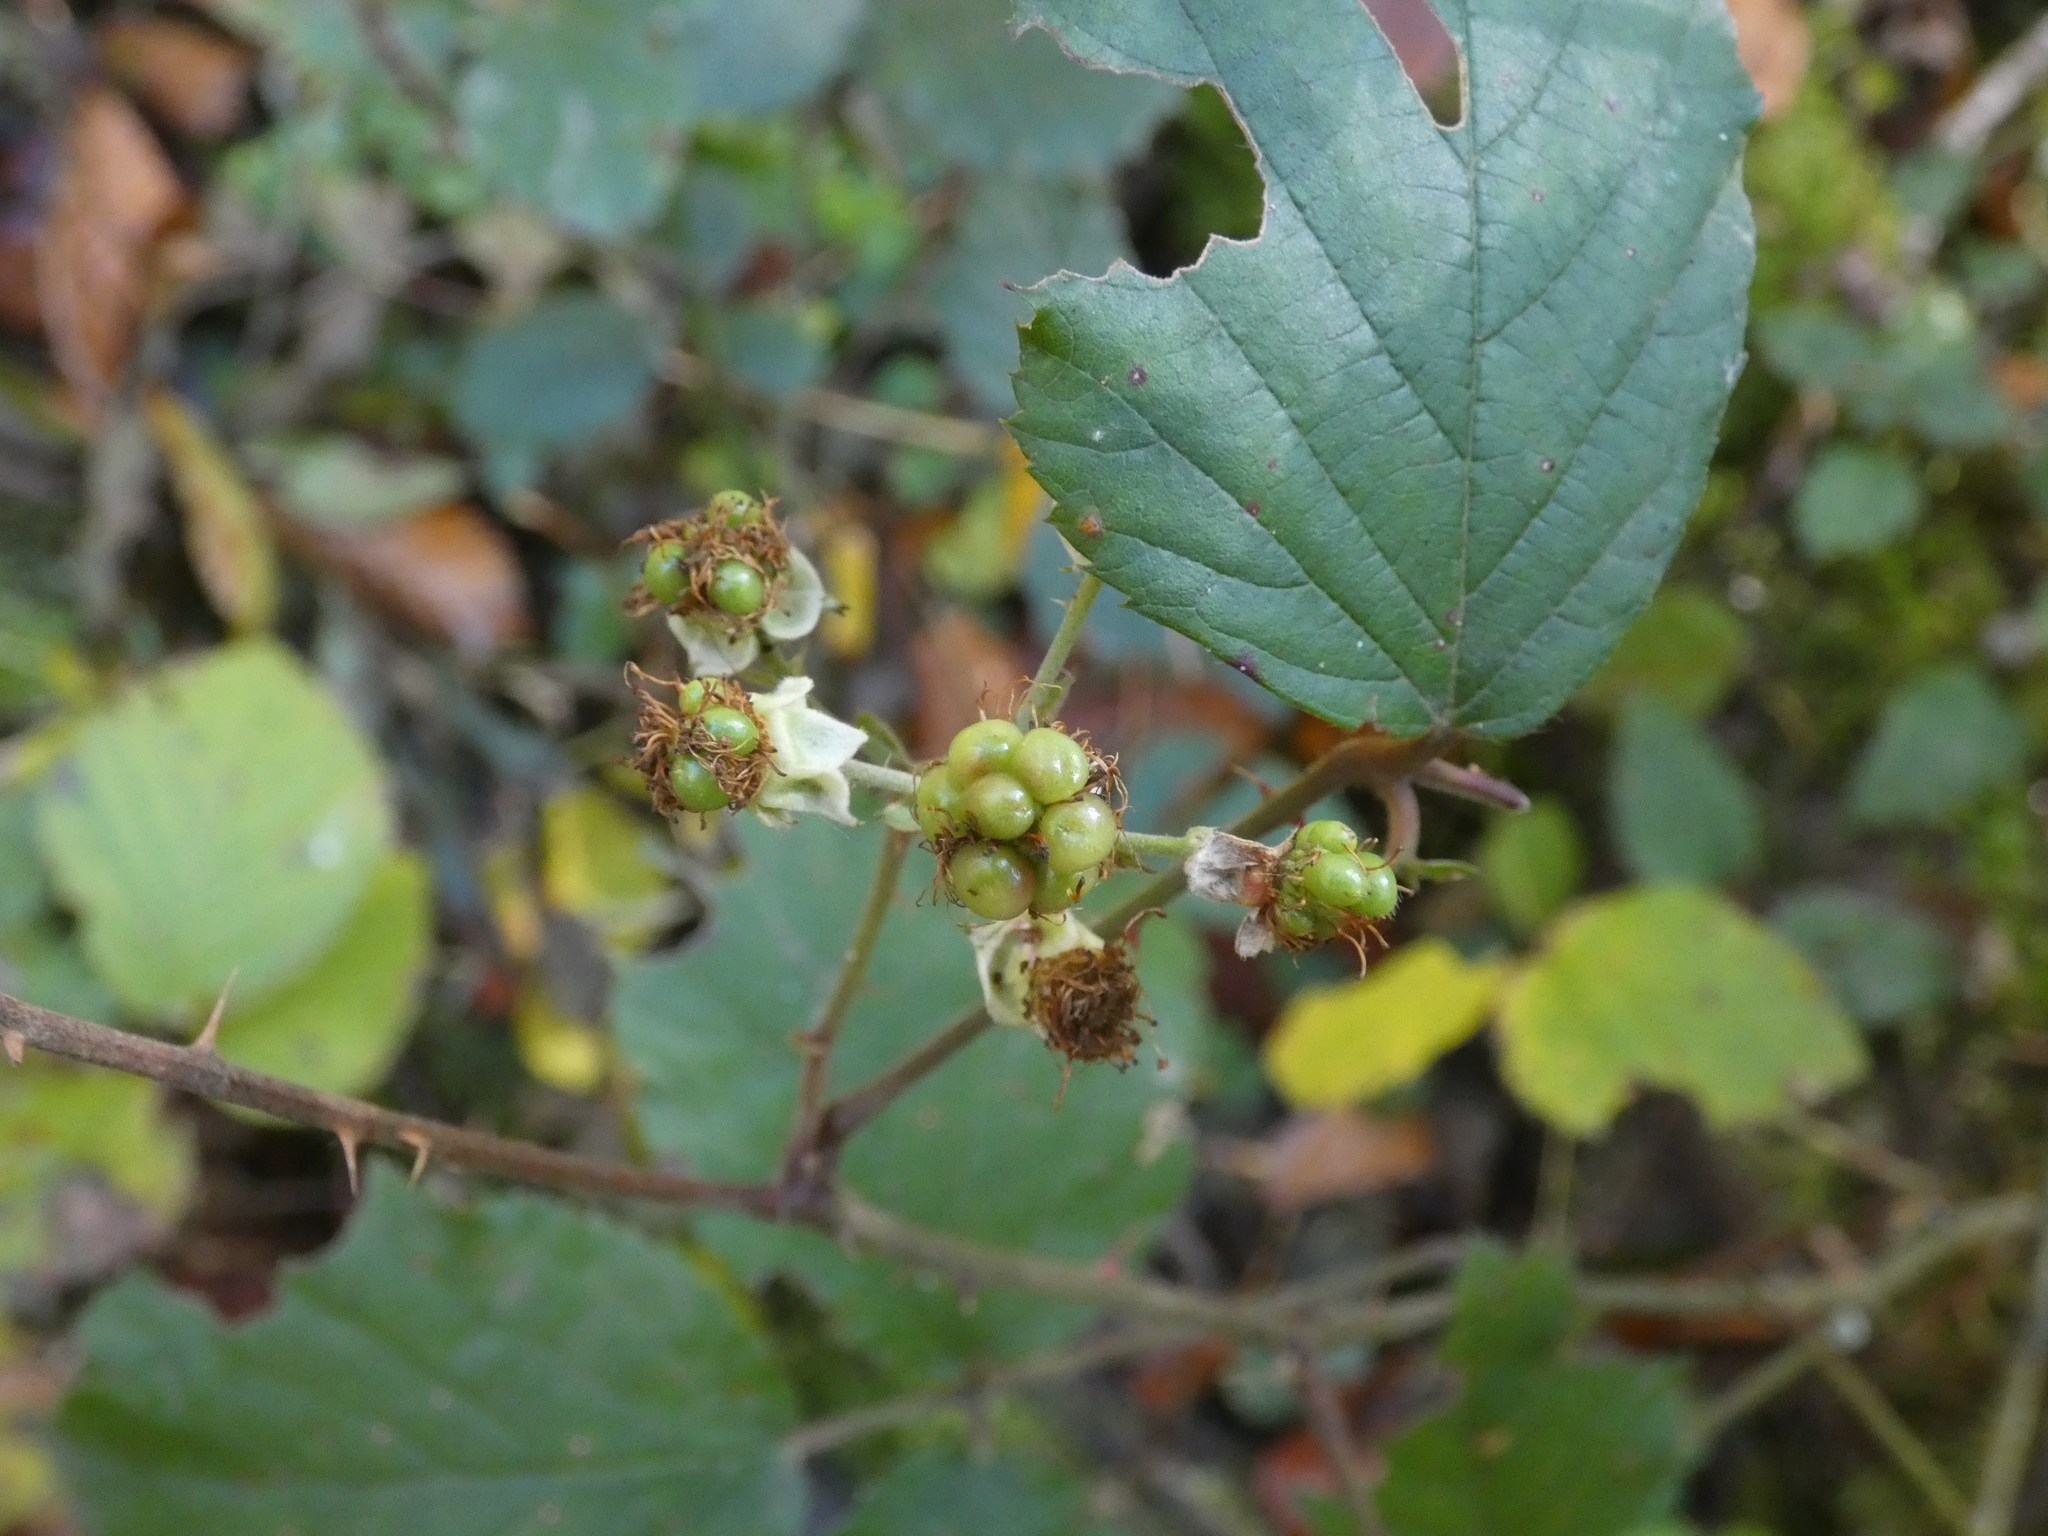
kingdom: Plantae
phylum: Tracheophyta
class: Magnoliopsida
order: Rosales
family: Rosaceae
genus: Rubus
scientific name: Rubus caesius
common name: Dewberry
